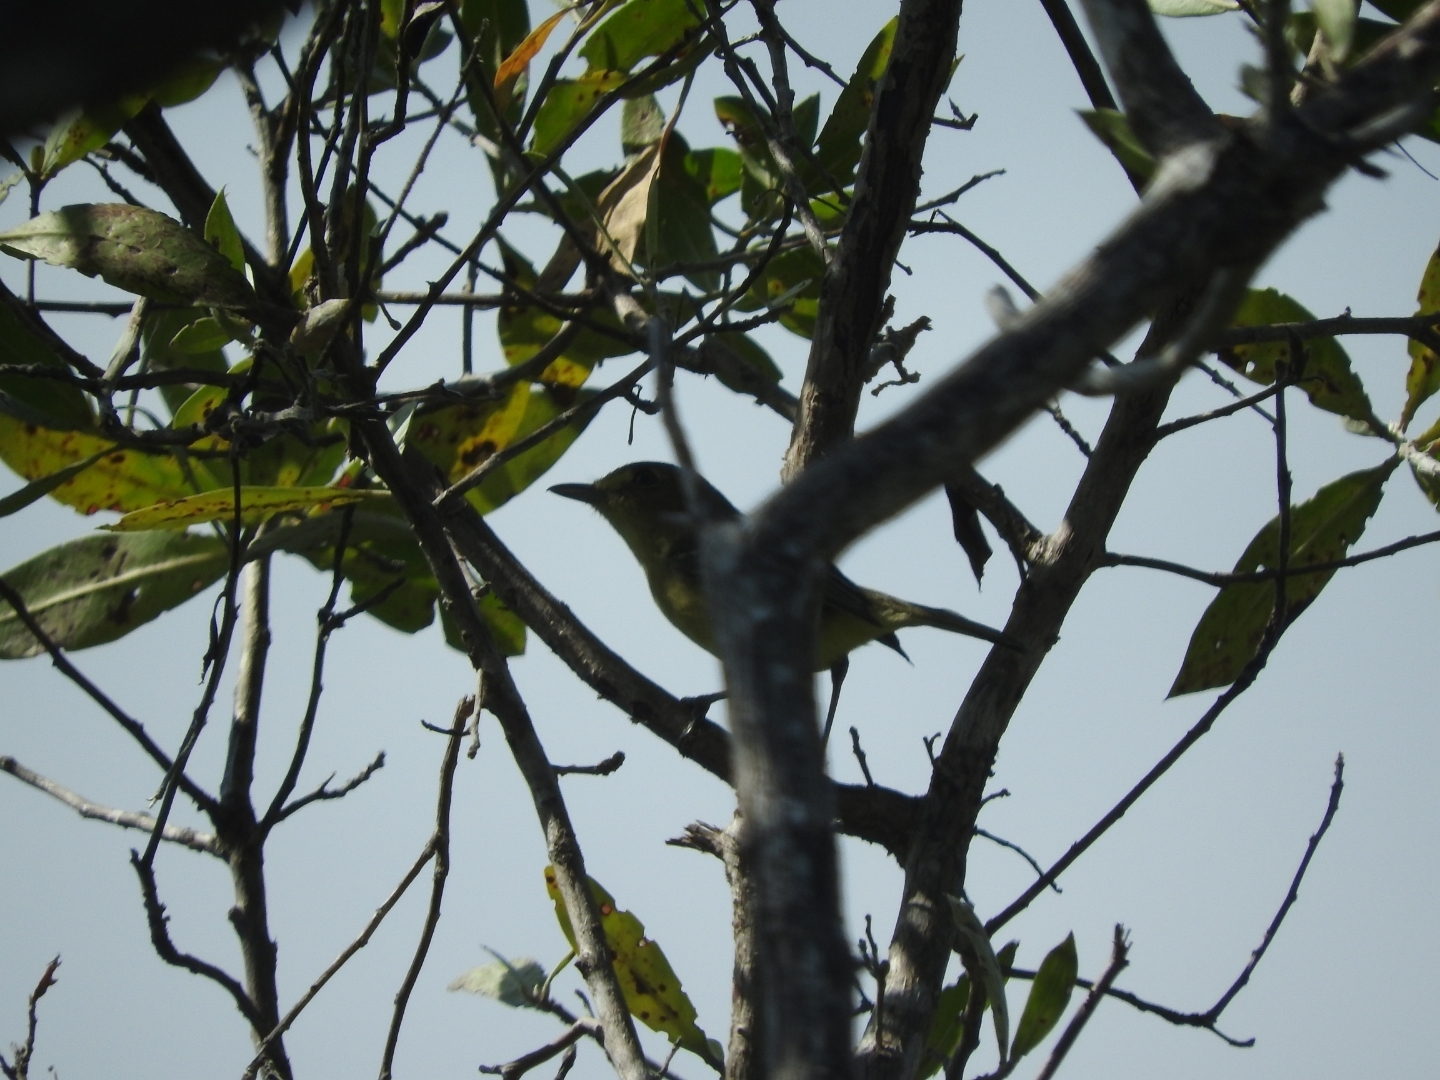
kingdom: Animalia
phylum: Chordata
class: Aves
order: Passeriformes
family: Vireonidae
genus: Vireo
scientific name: Vireo pallens
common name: Mangrove vireo
